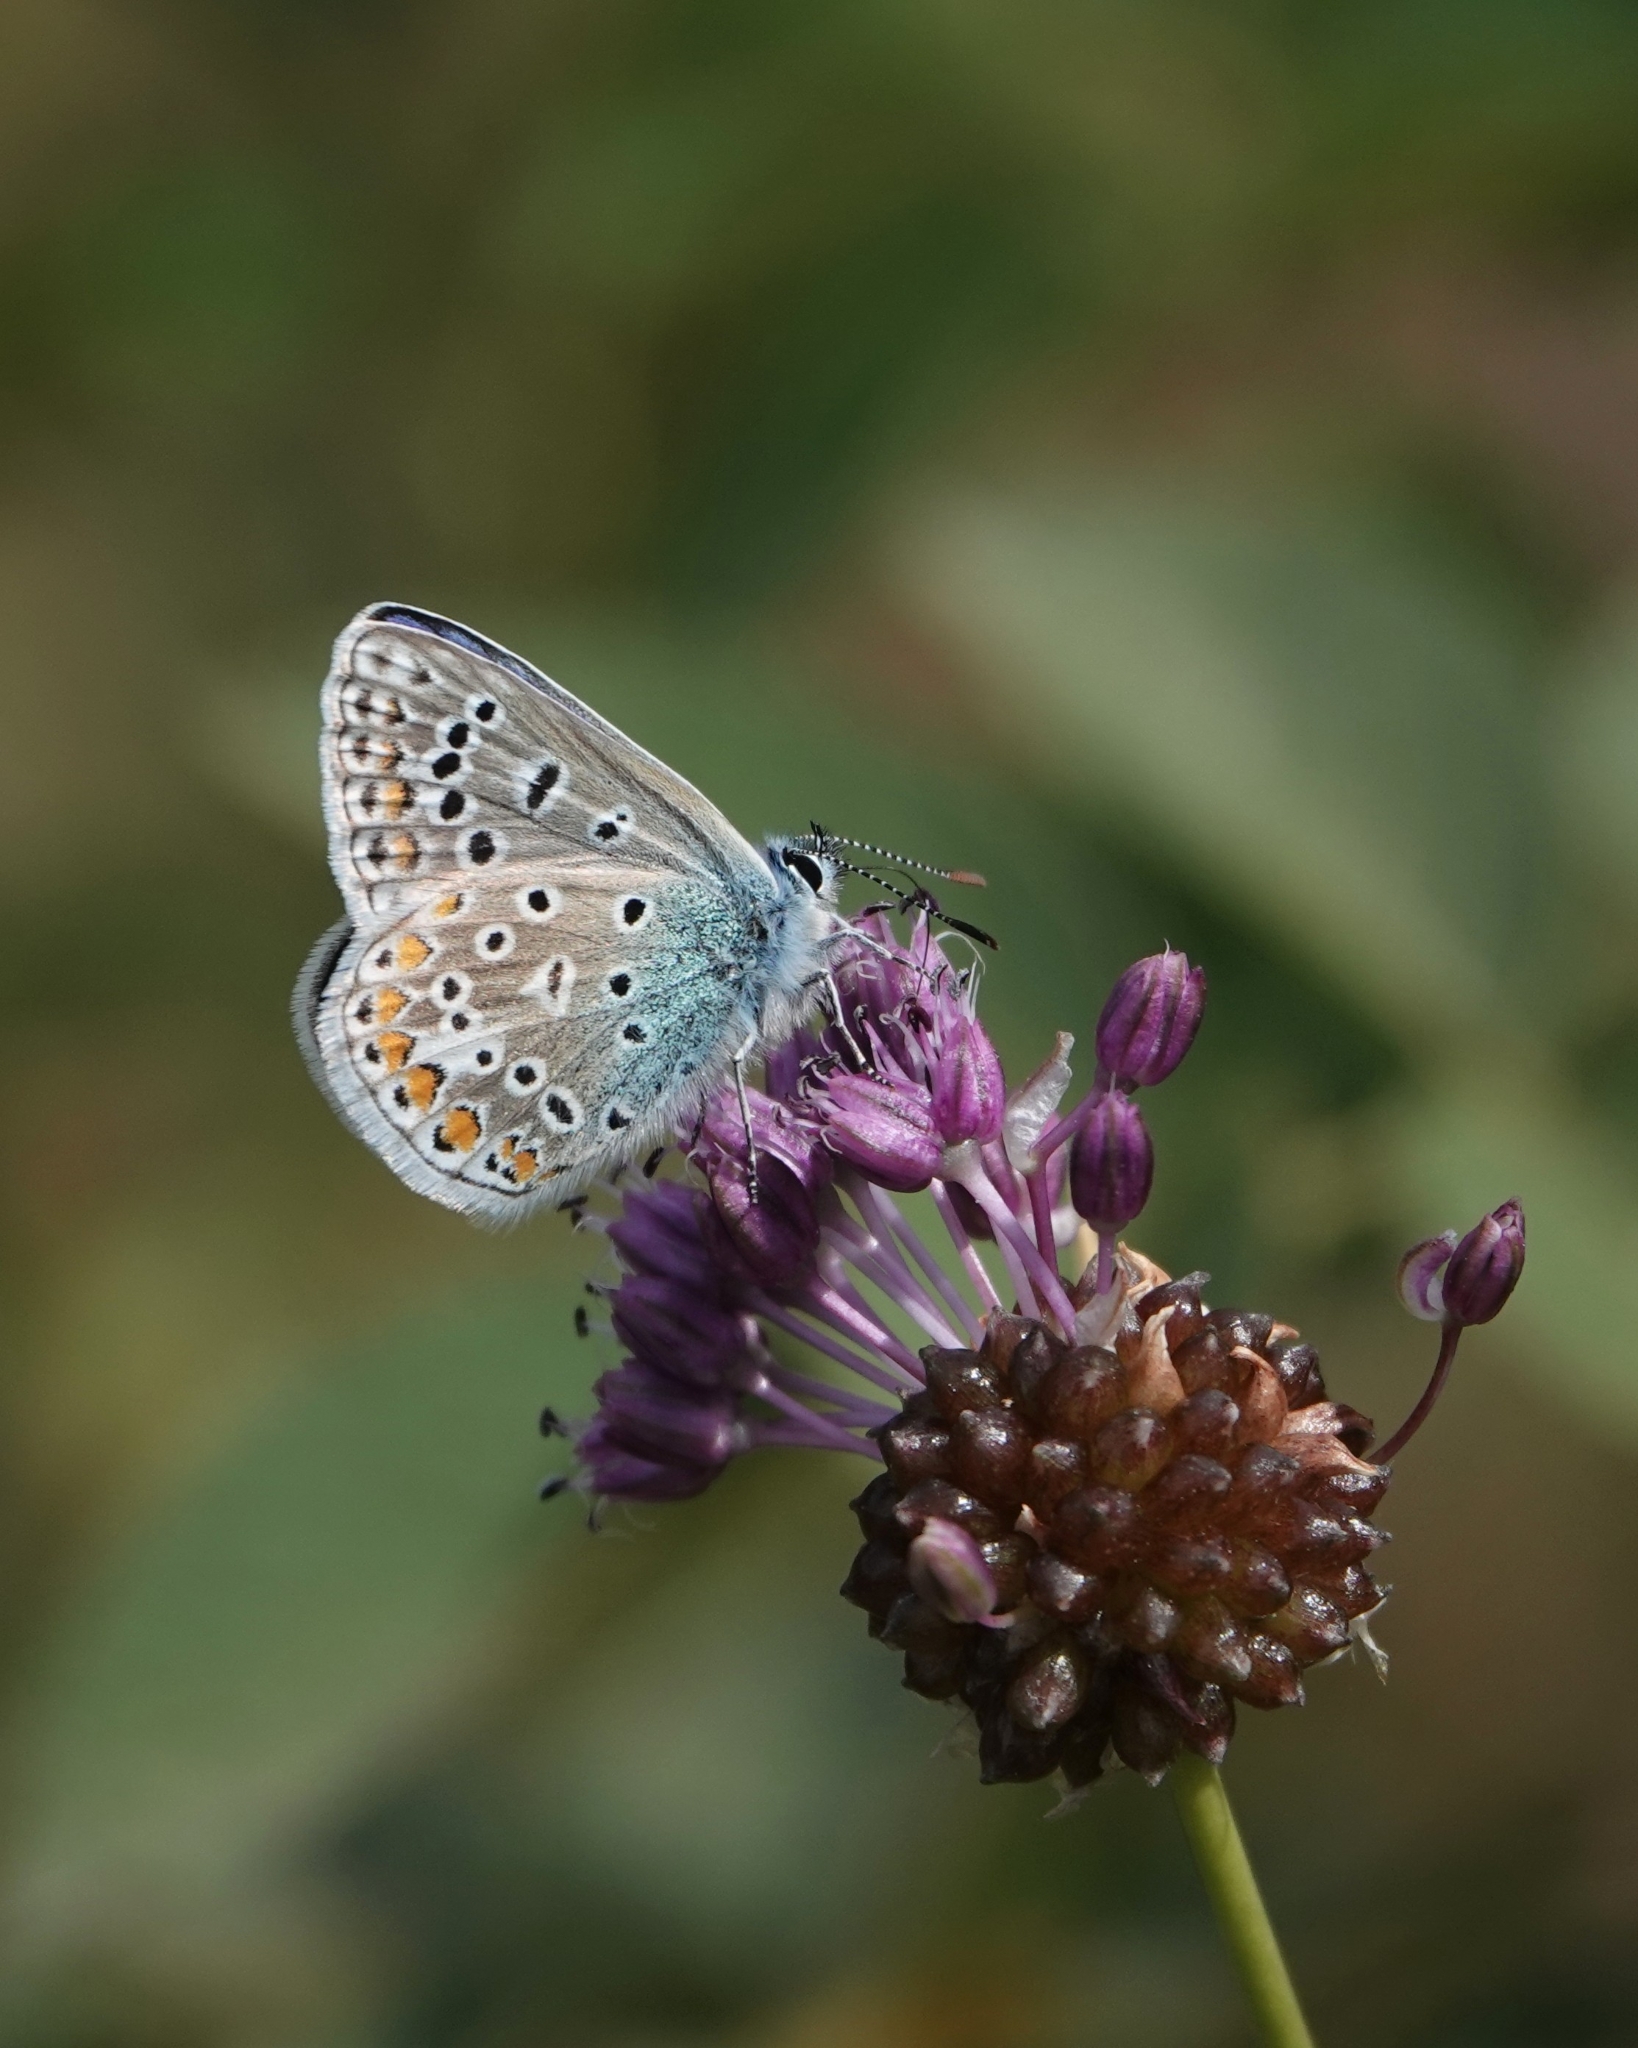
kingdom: Animalia
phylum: Arthropoda
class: Insecta
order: Lepidoptera
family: Lycaenidae
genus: Polyommatus
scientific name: Polyommatus icarus
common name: Common blue
